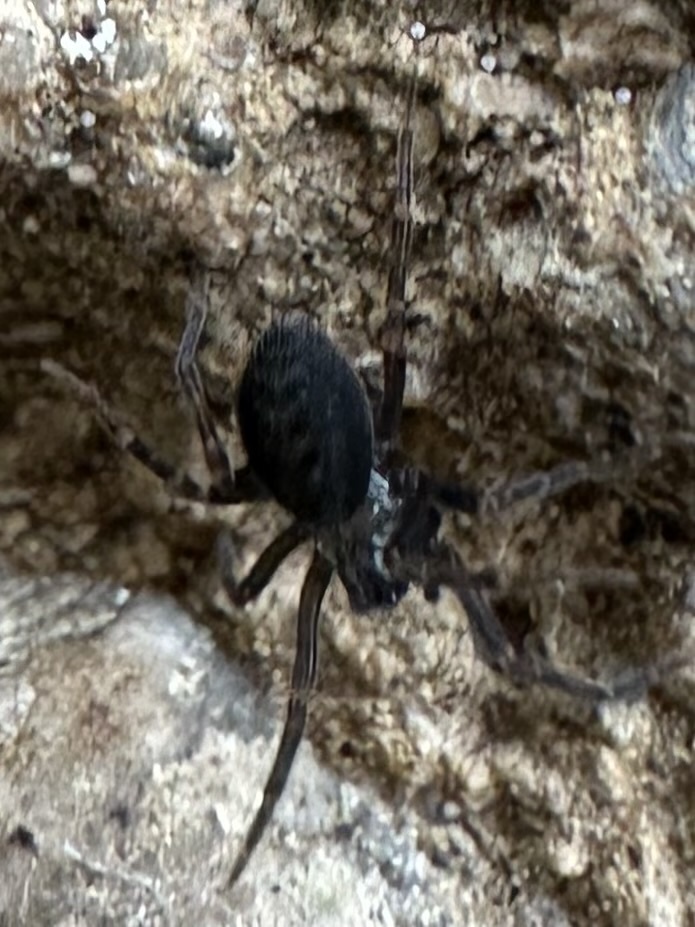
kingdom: Animalia
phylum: Arthropoda
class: Arachnida
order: Araneae
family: Desidae
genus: Metaltella
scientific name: Metaltella simoni
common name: Cribellate spider
